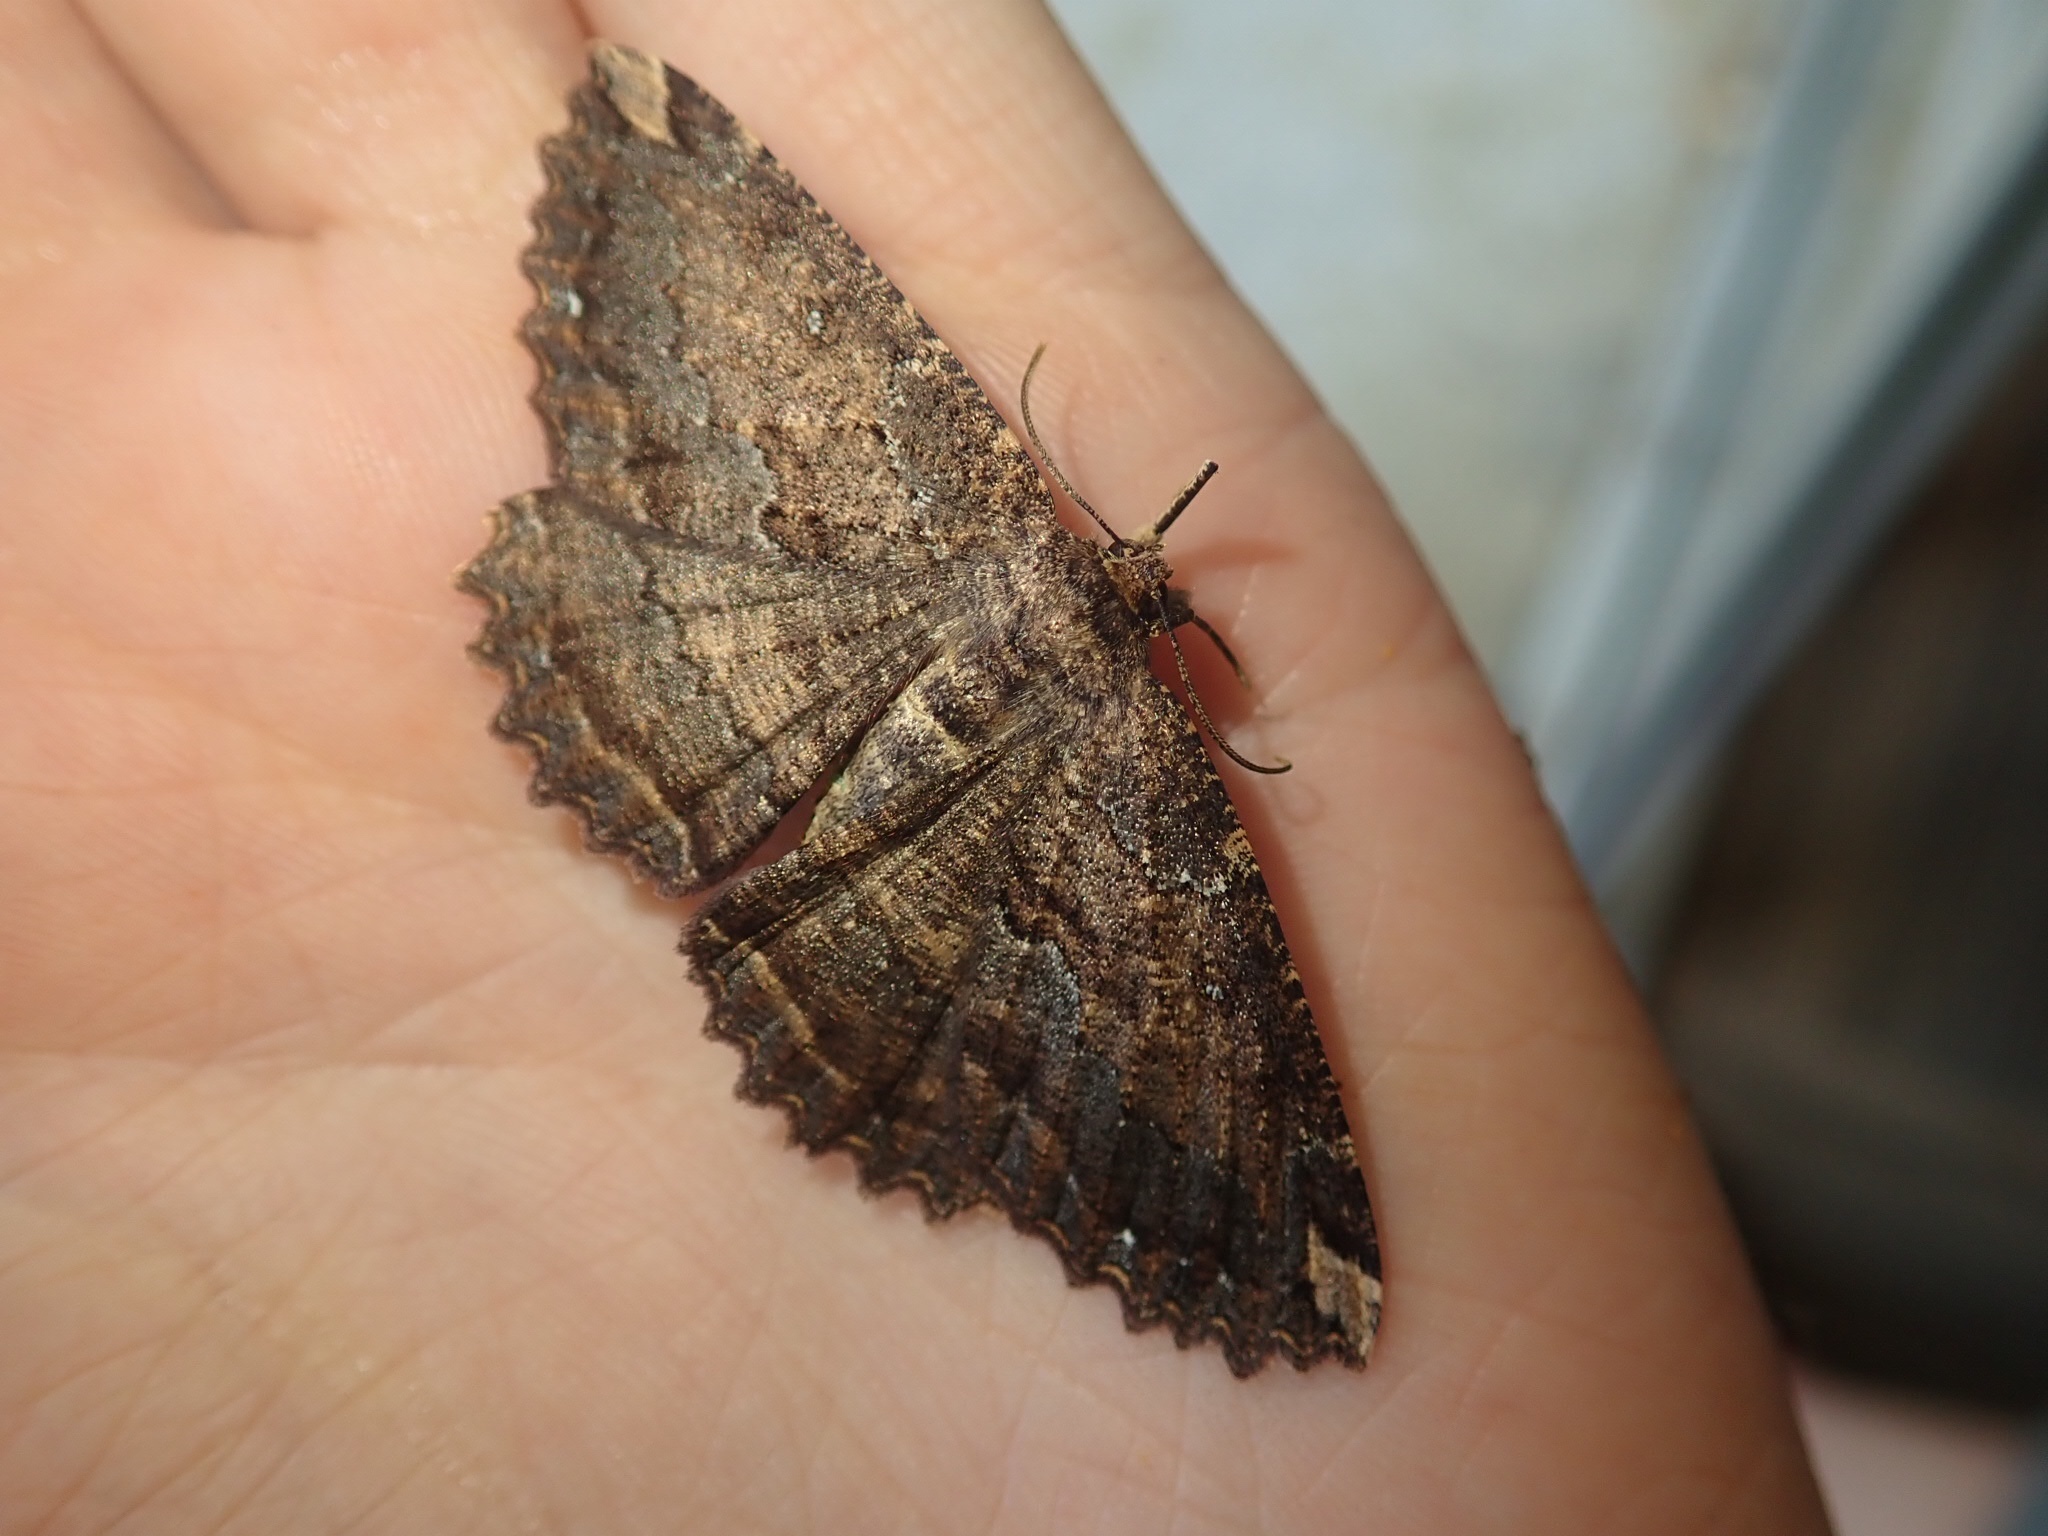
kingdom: Animalia
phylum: Arthropoda
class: Insecta
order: Lepidoptera
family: Geometridae
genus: Gellonia
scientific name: Gellonia dejectaria
